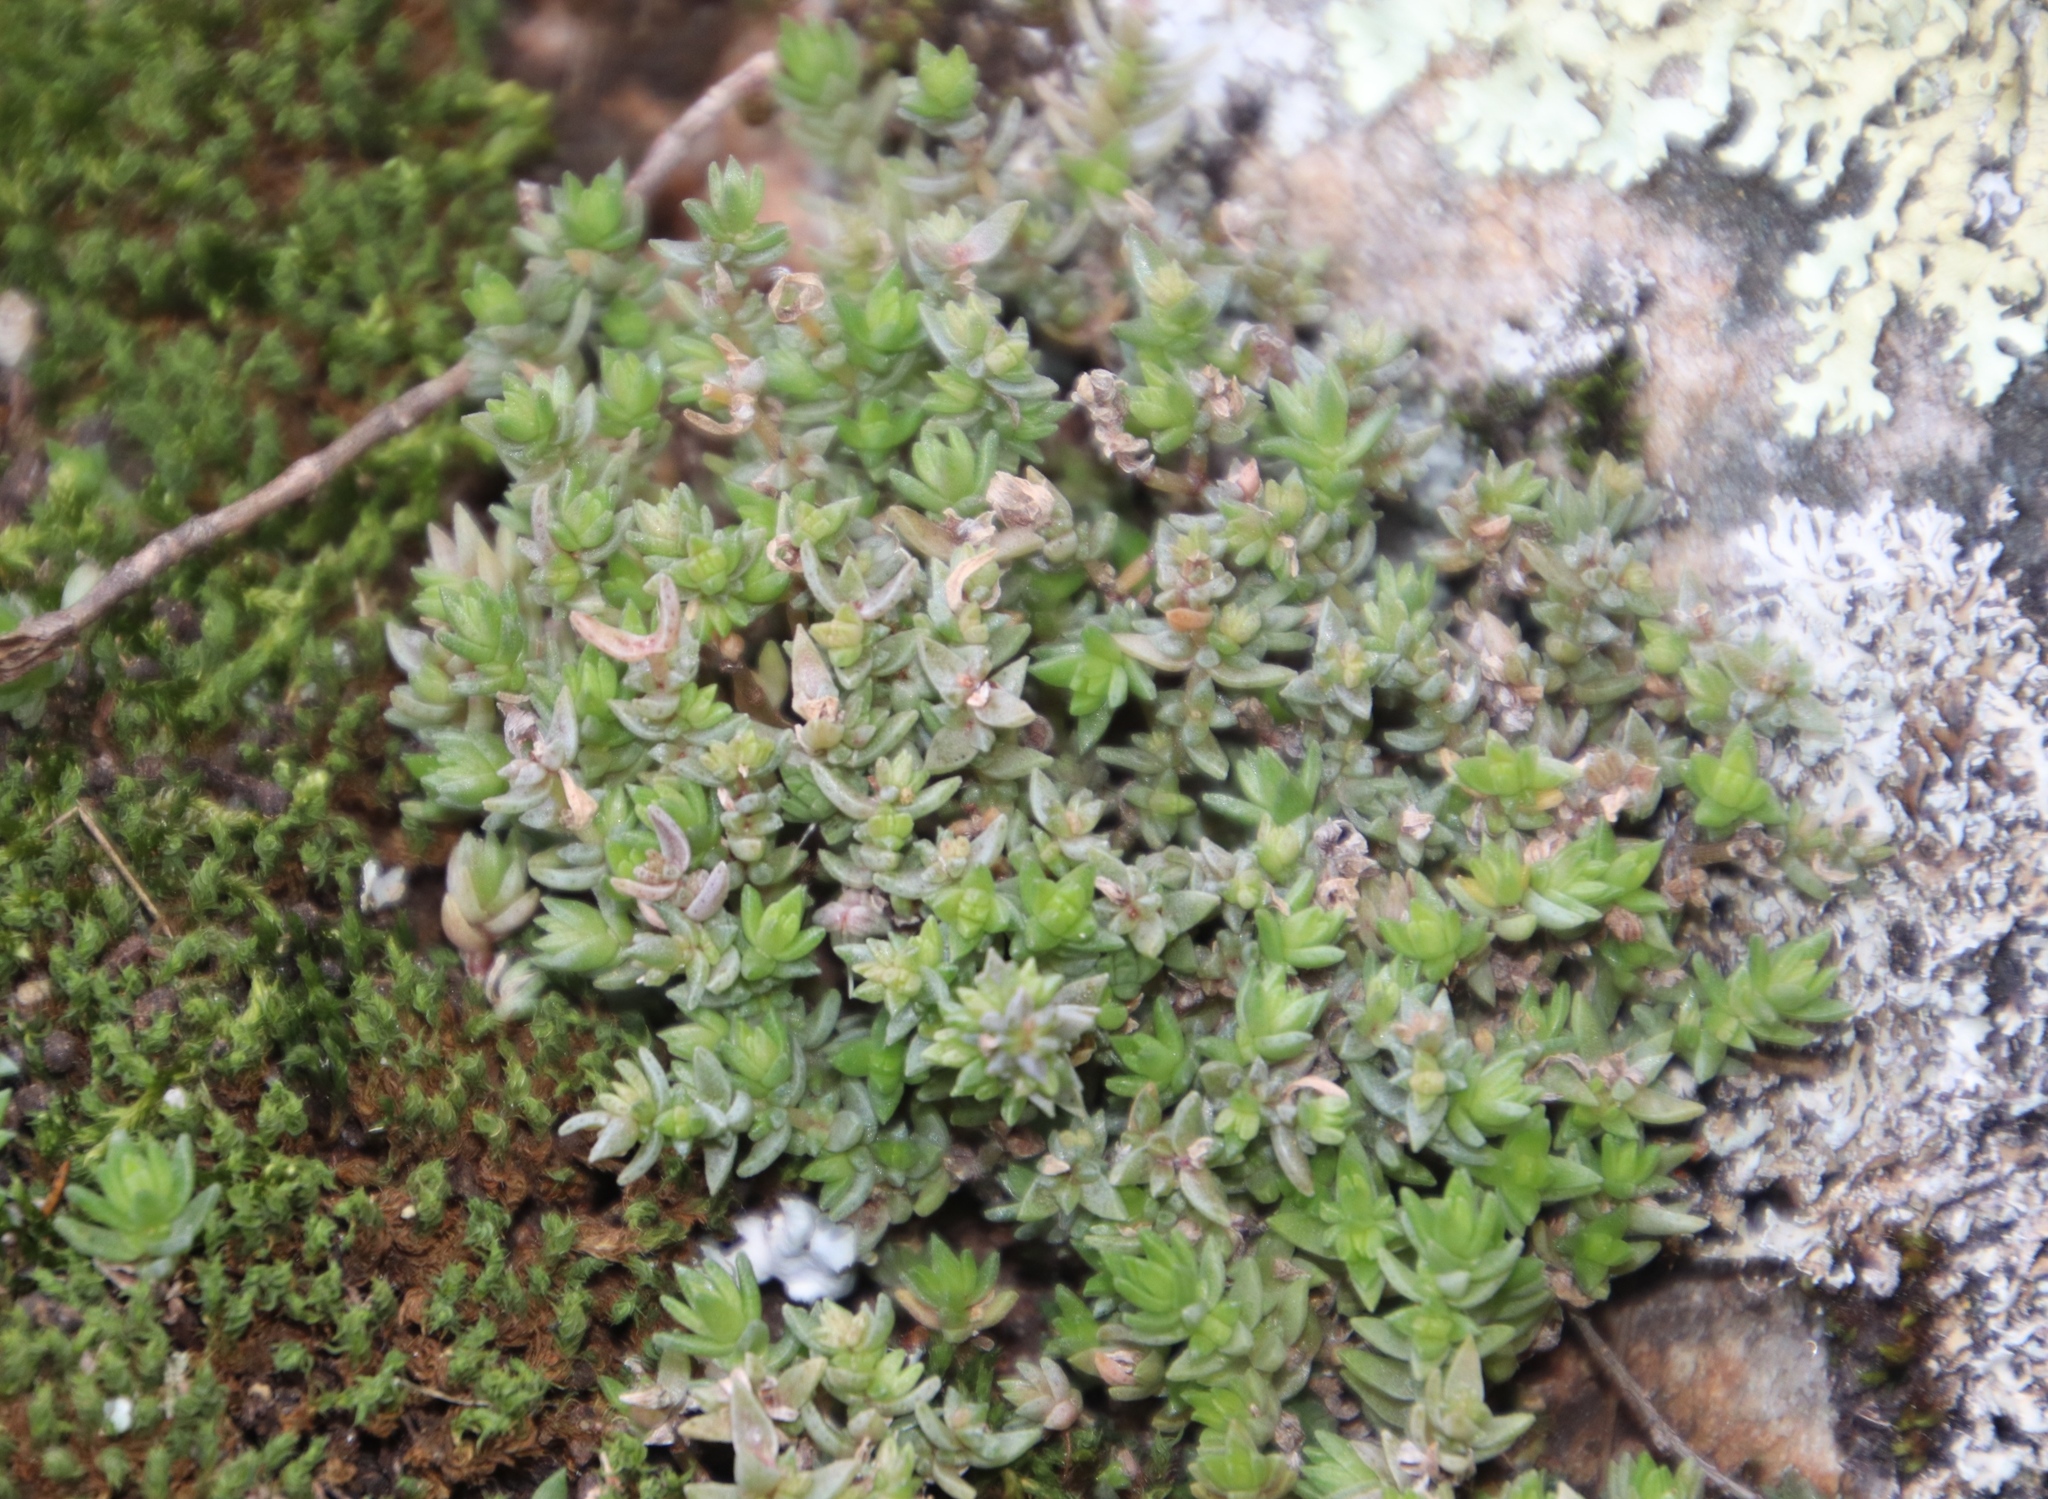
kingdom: Plantae
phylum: Tracheophyta
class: Magnoliopsida
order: Saxifragales
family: Crassulaceae
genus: Crassula
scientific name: Crassula lanceolata
